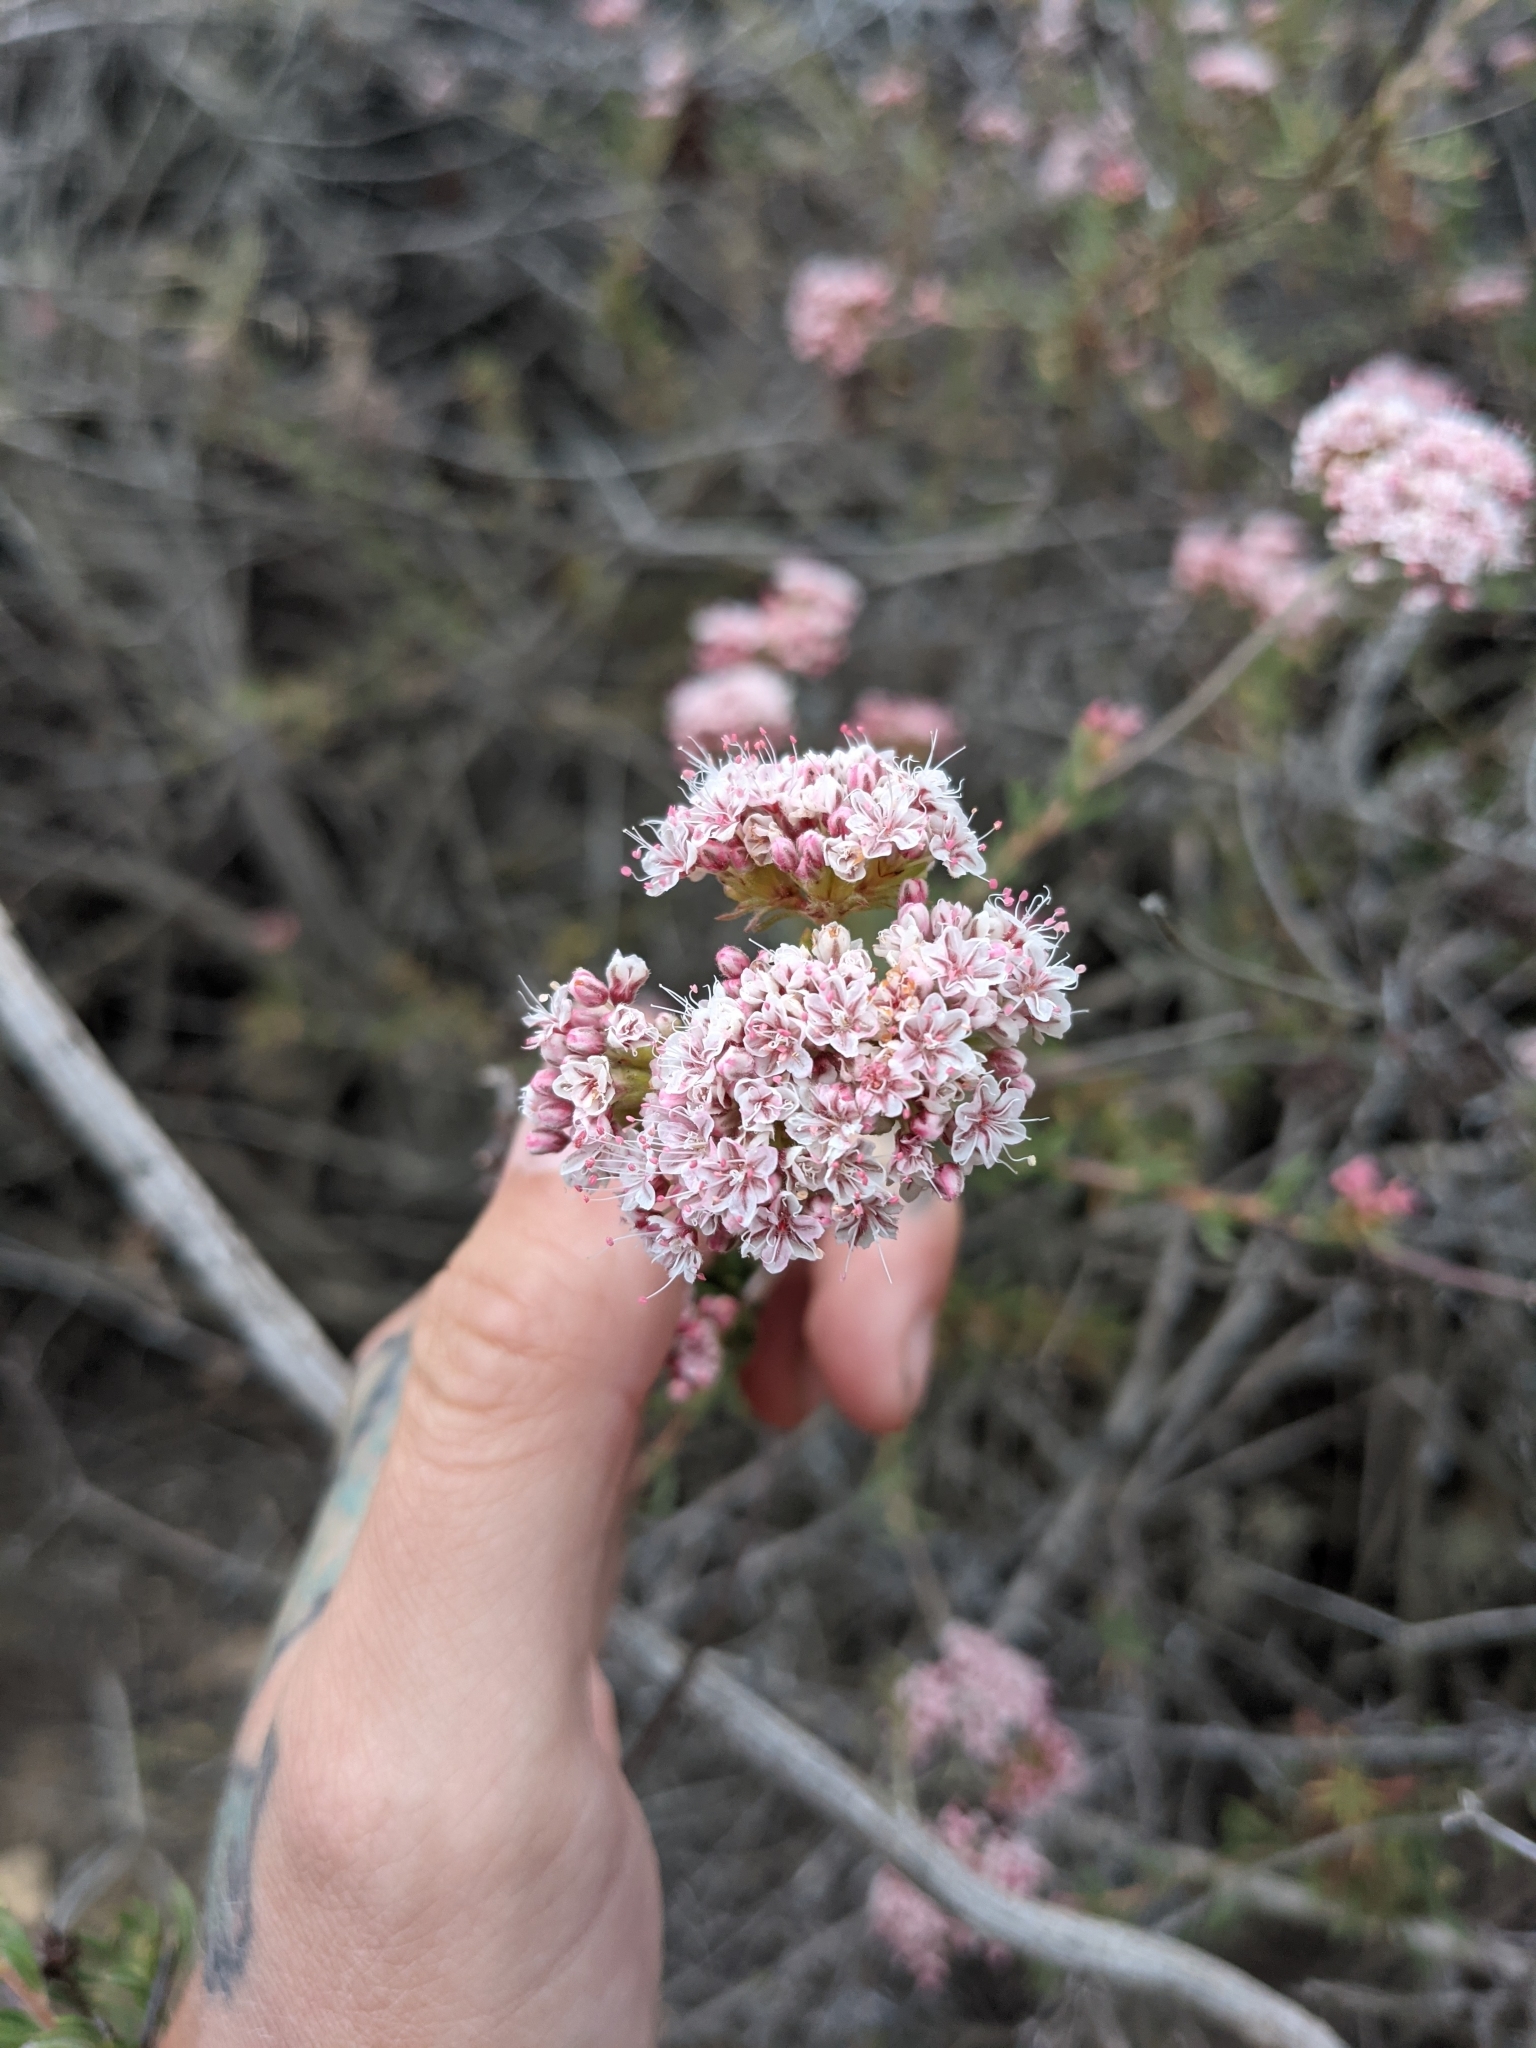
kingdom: Plantae
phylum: Tracheophyta
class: Magnoliopsida
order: Caryophyllales
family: Polygonaceae
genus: Eriogonum
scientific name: Eriogonum fasciculatum
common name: California wild buckwheat
